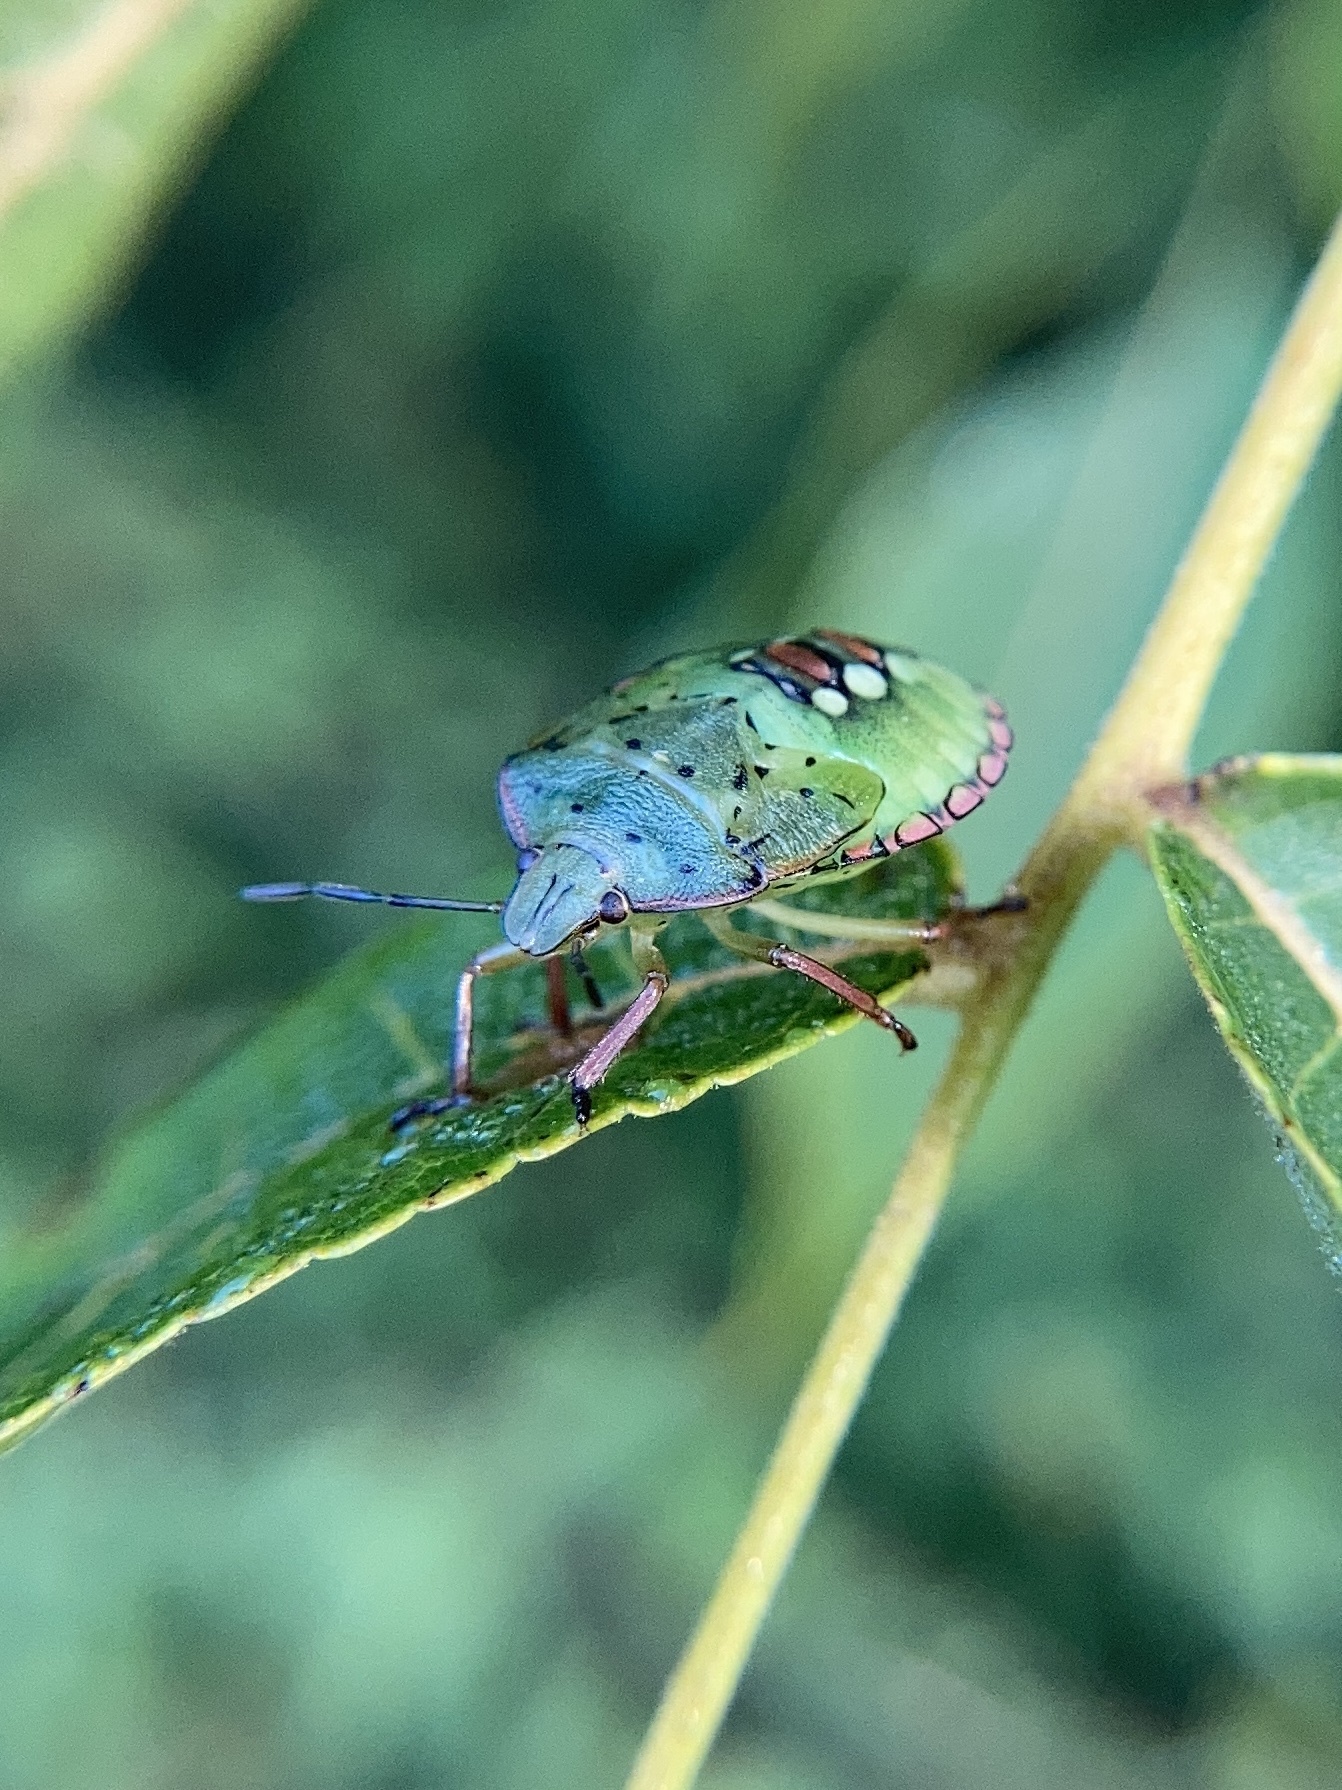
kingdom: Animalia
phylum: Arthropoda
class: Insecta
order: Hemiptera
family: Pentatomidae
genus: Nezara
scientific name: Nezara viridula
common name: Southern green stink bug
